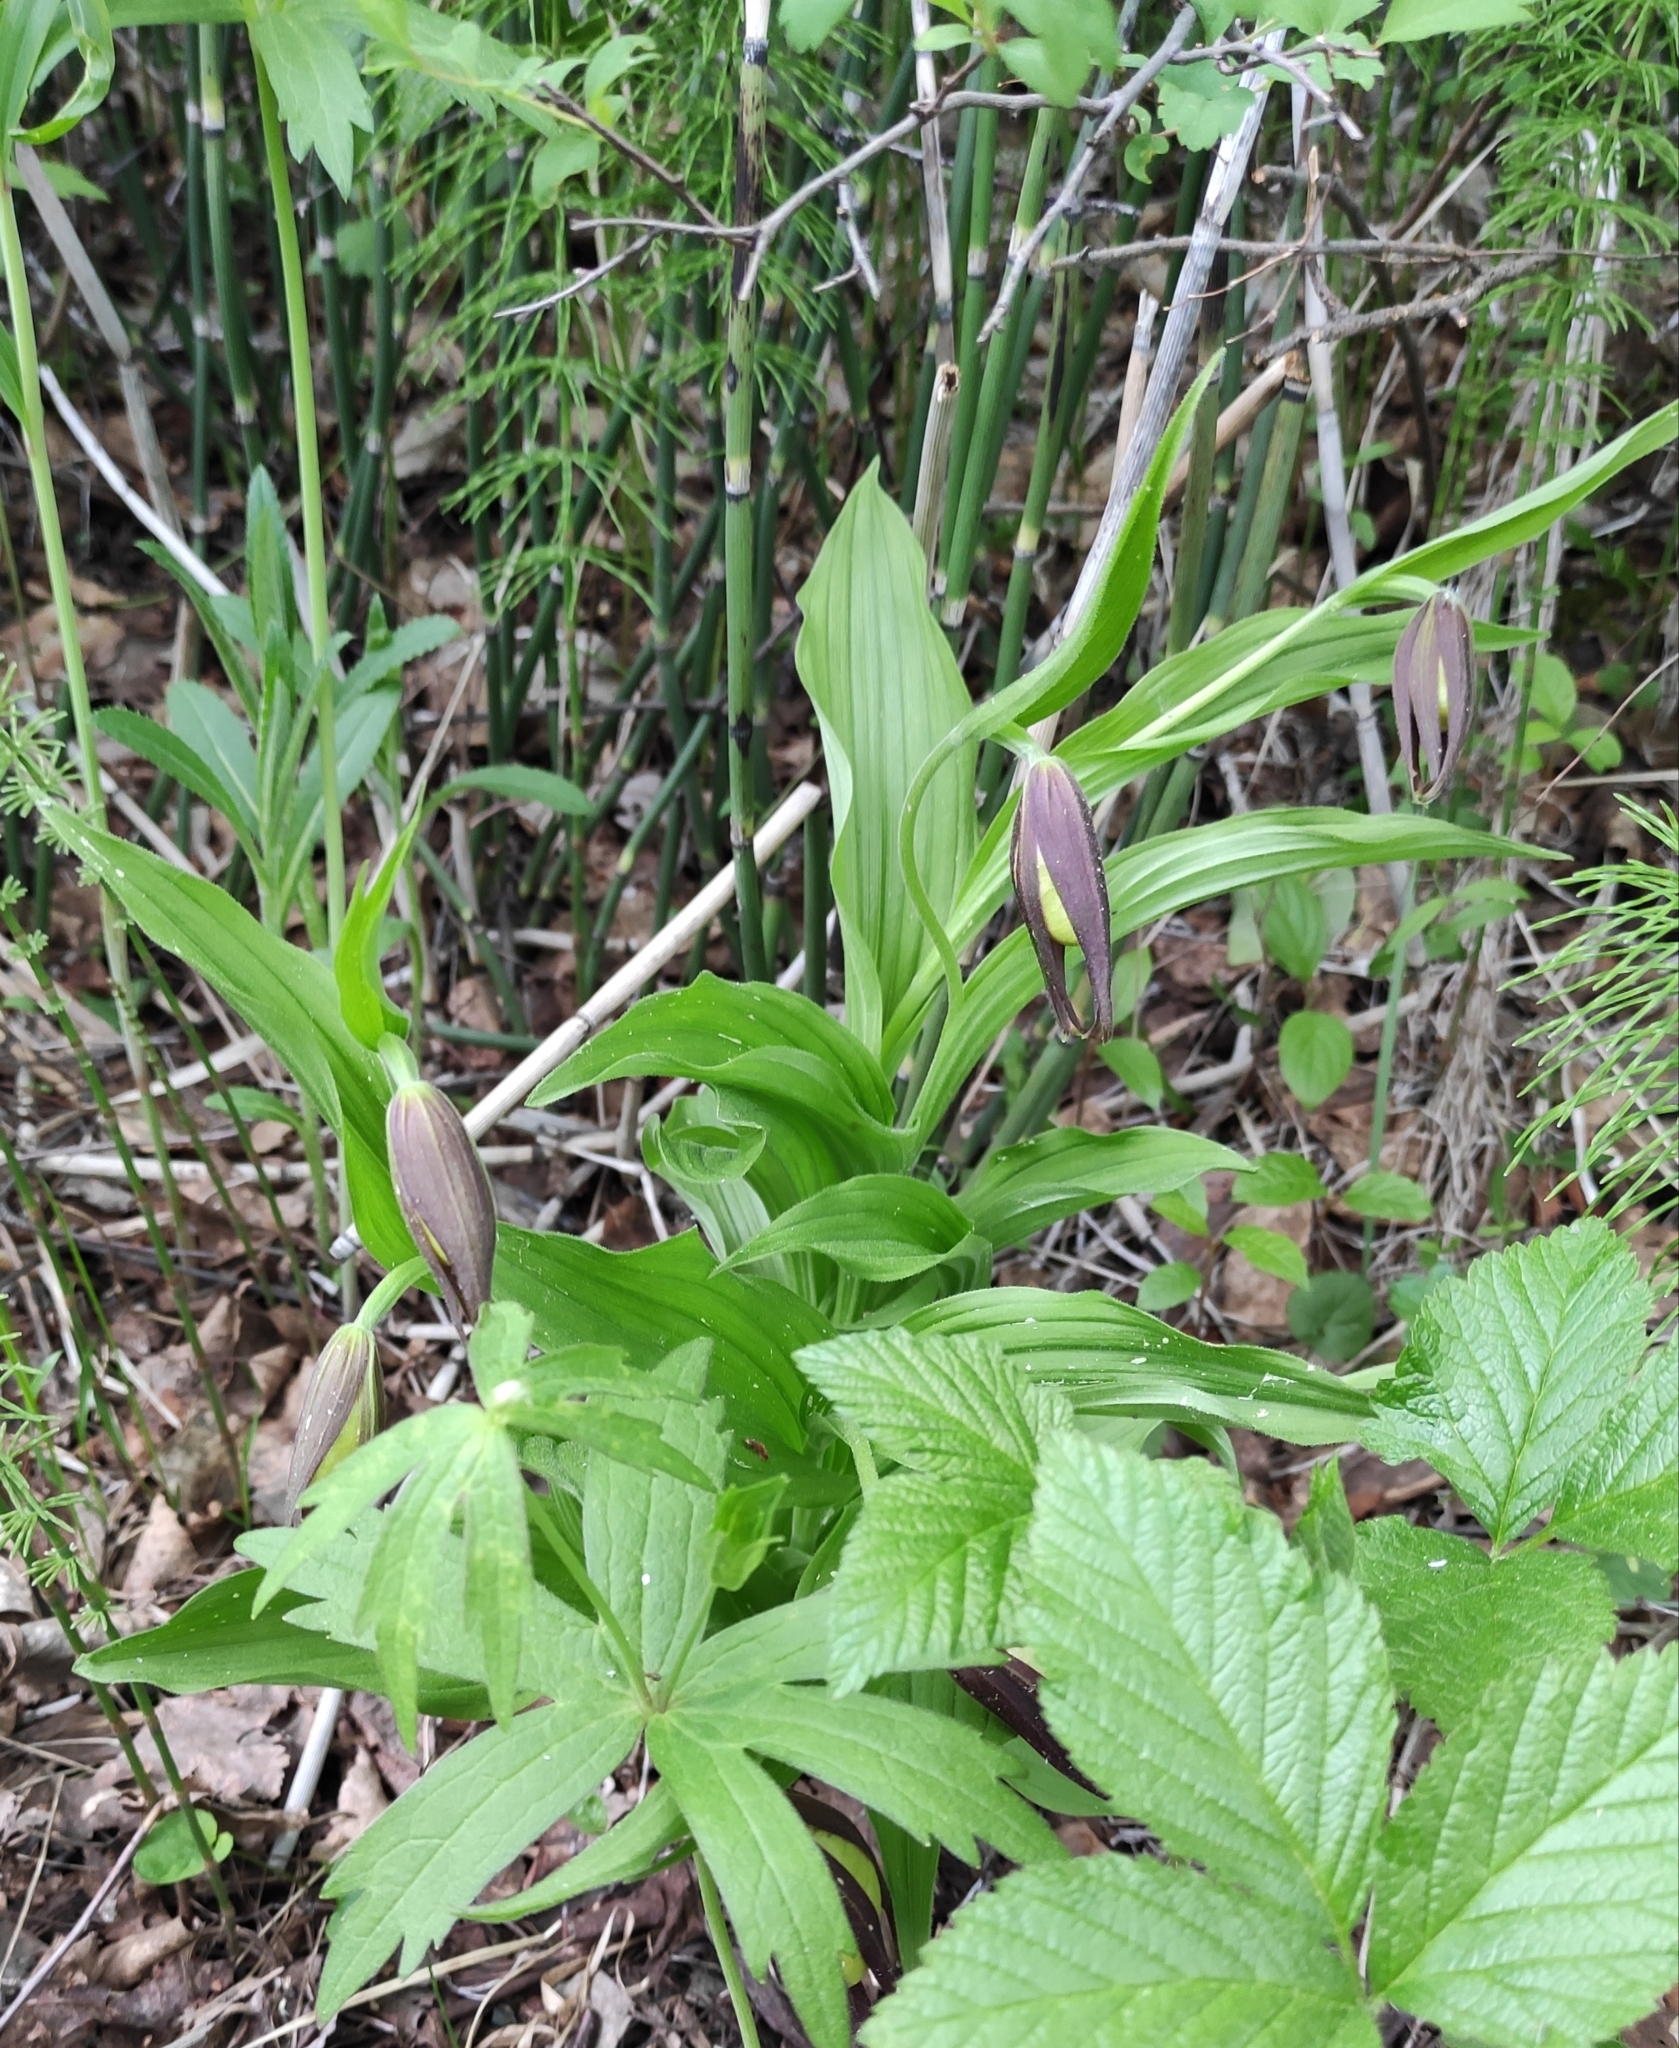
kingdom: Plantae
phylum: Tracheophyta
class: Liliopsida
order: Asparagales
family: Orchidaceae
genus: Cypripedium
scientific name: Cypripedium calceolus
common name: Lady's-slipper
